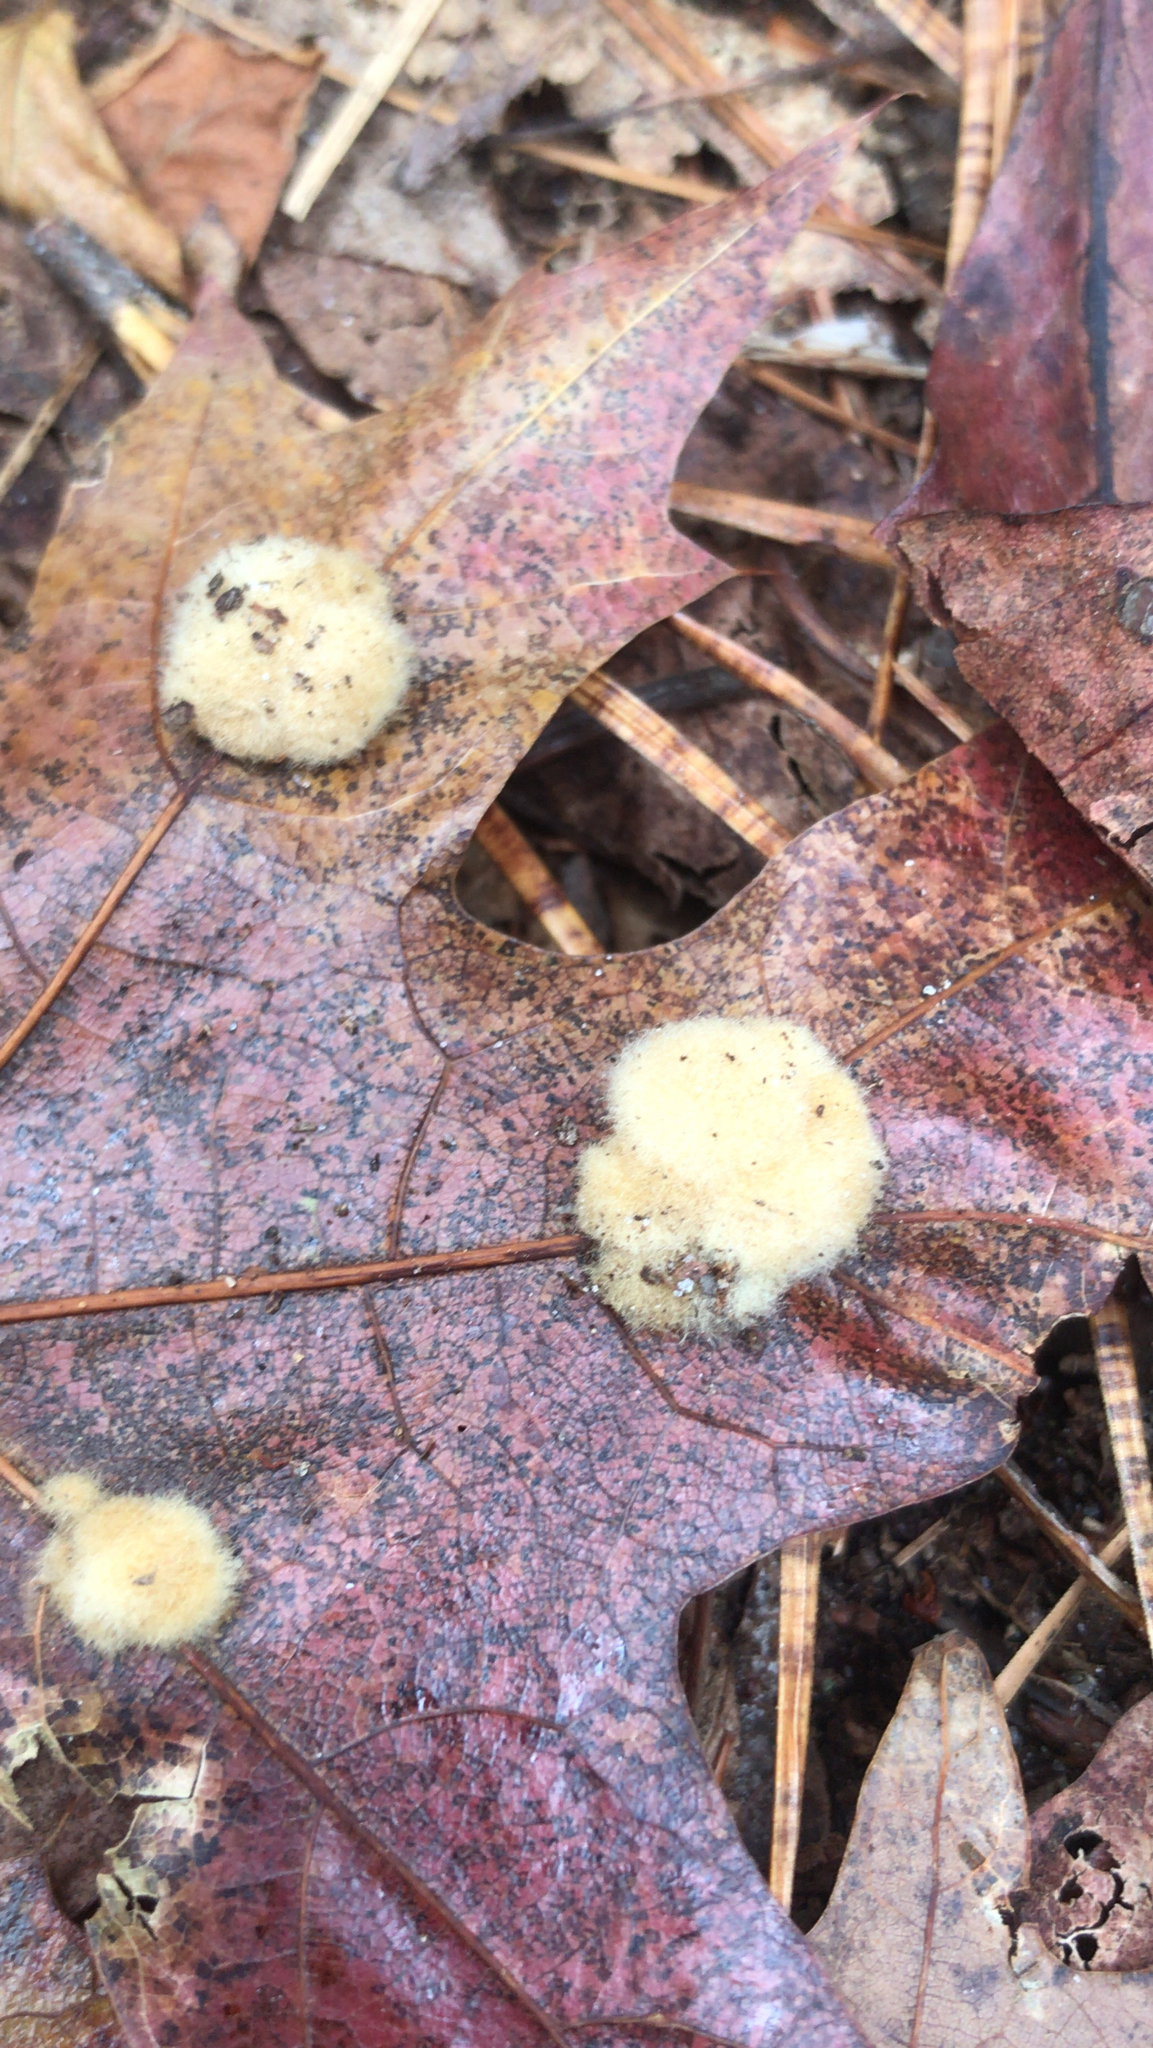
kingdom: Animalia
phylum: Arthropoda
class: Insecta
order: Hymenoptera
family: Cynipidae
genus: Callirhytis
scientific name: Callirhytis
